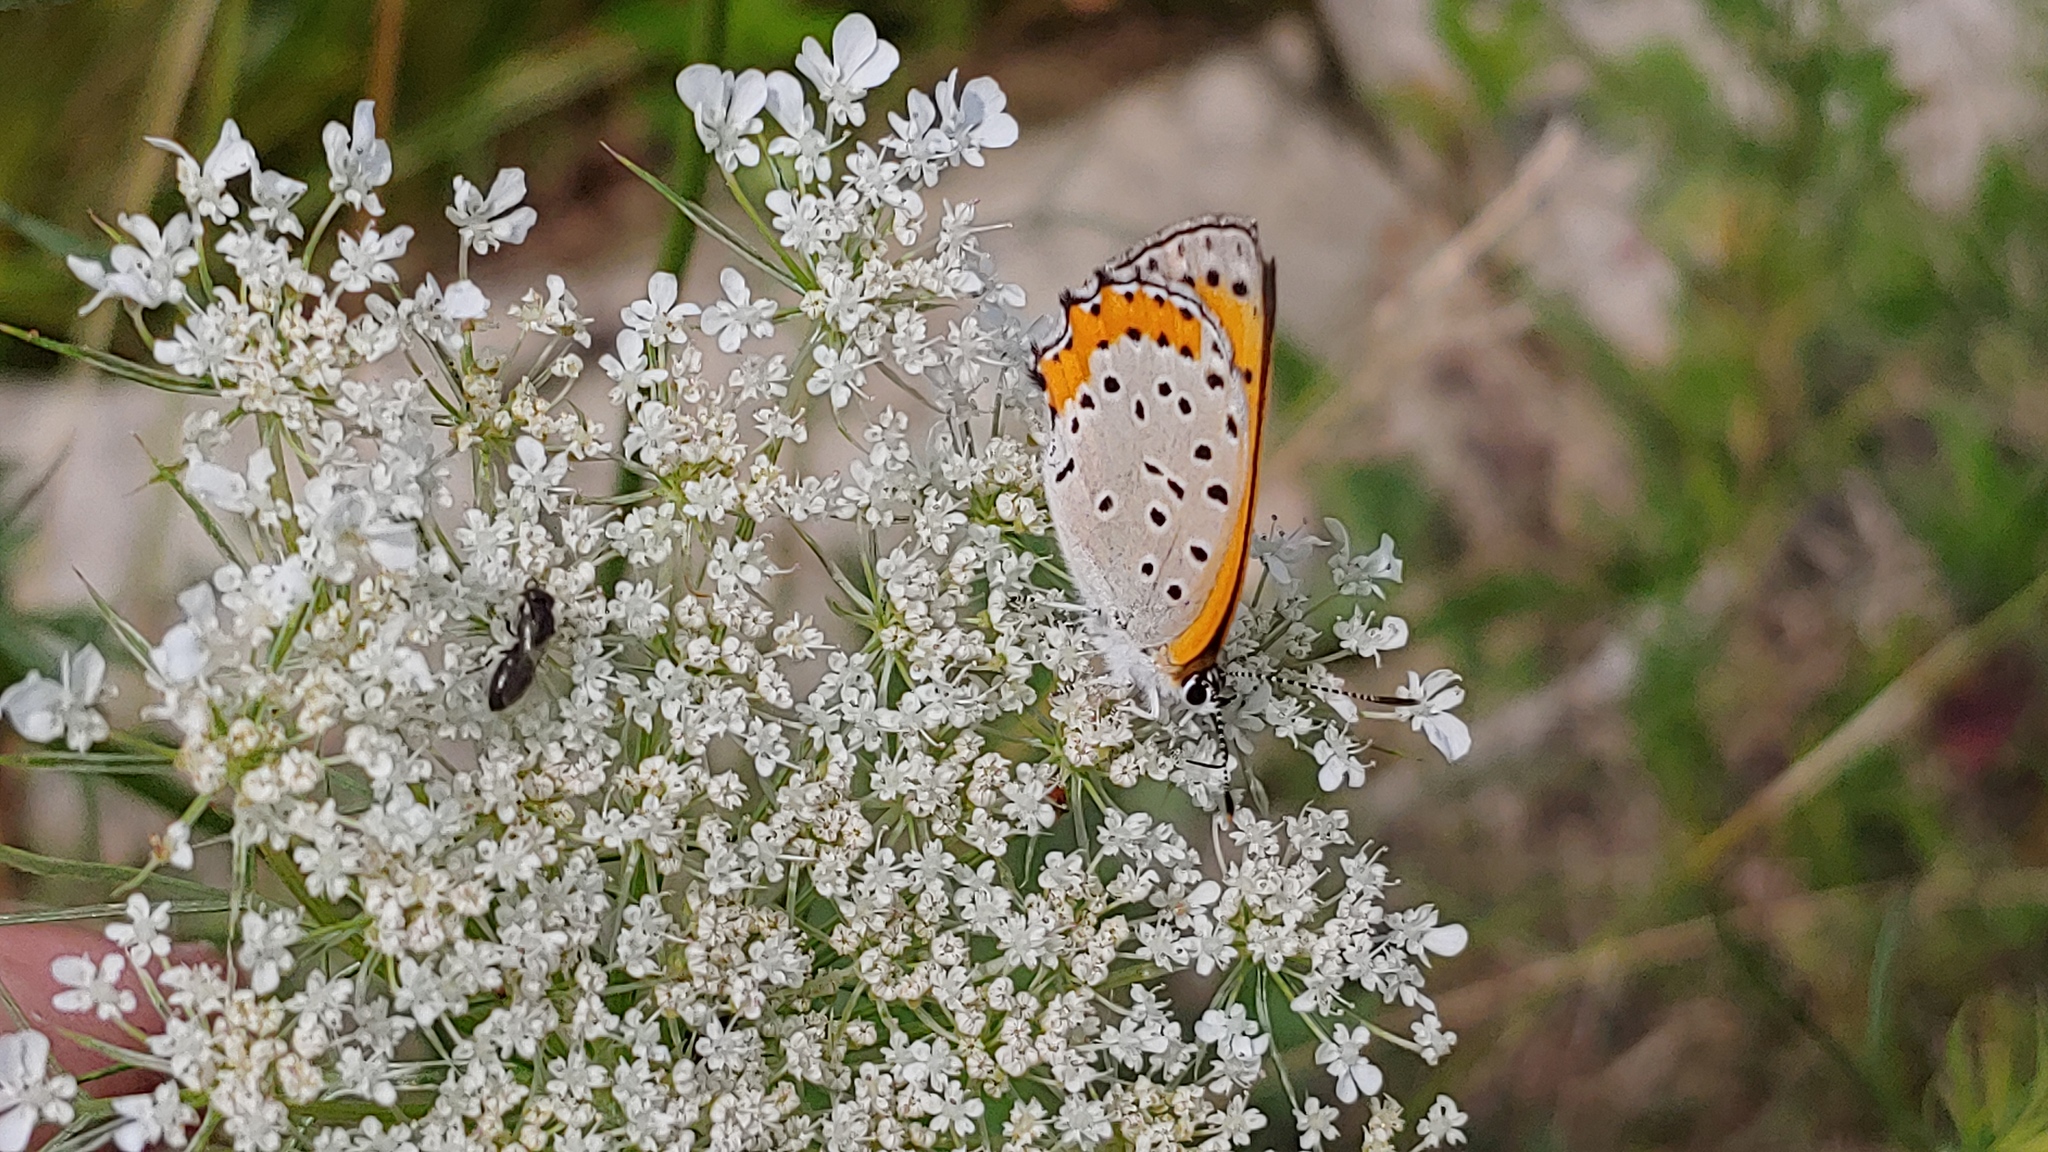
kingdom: Animalia
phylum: Arthropoda
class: Insecta
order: Lepidoptera
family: Lycaenidae
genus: Tharsalea
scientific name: Tharsalea hyllus
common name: Bronze copper
